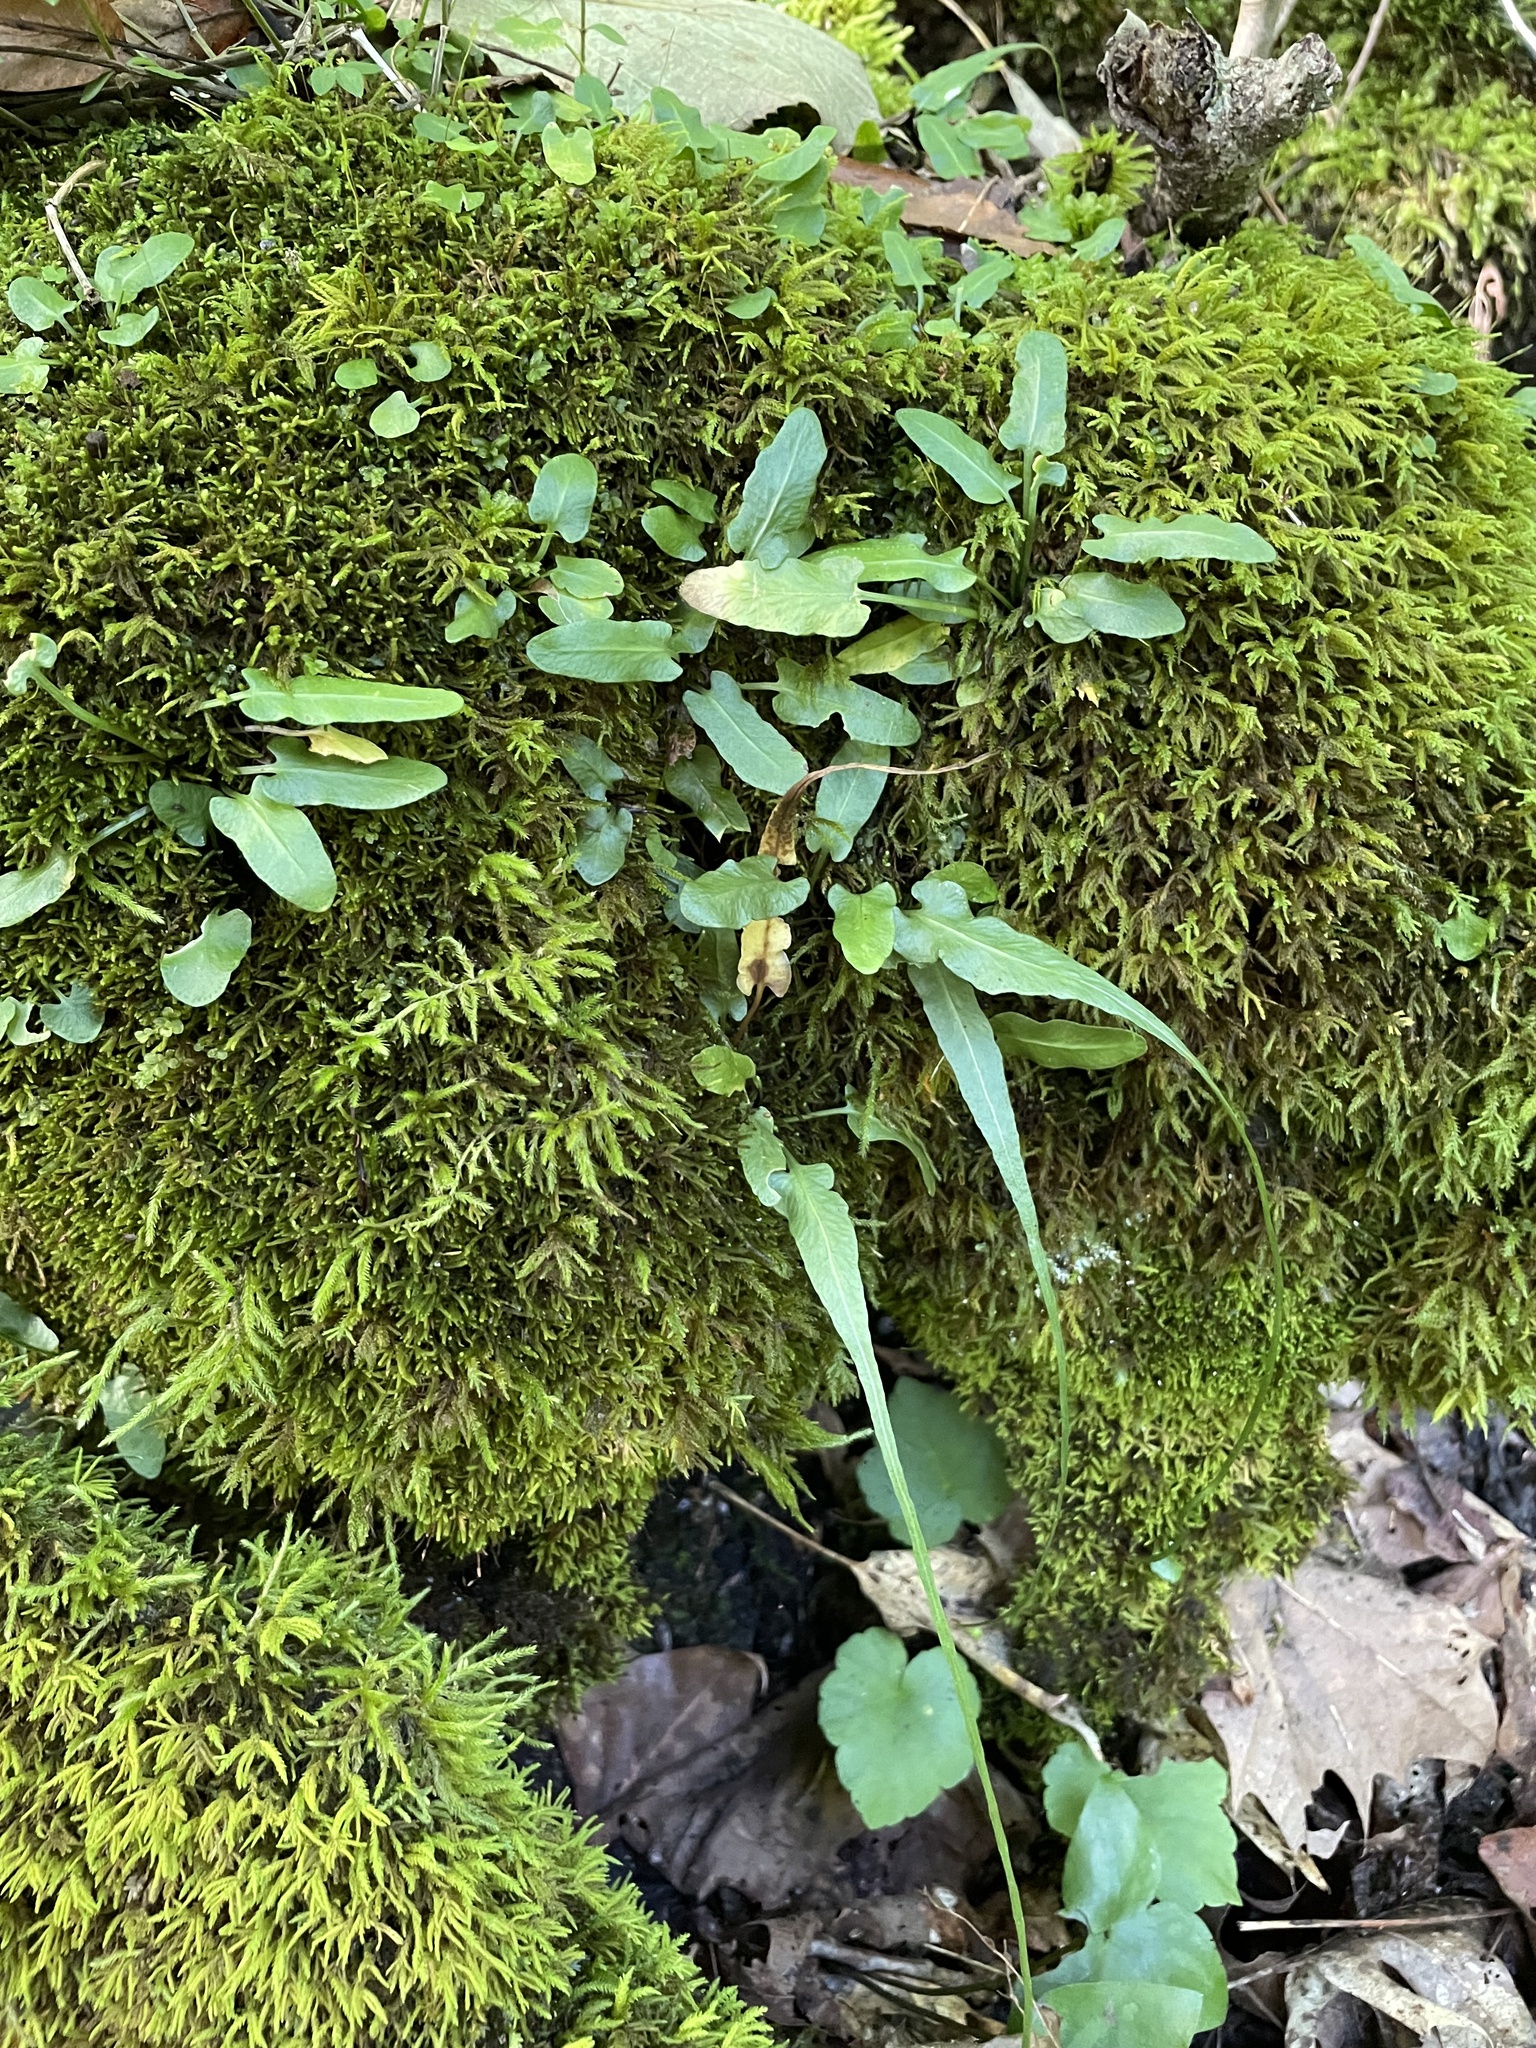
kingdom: Plantae
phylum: Tracheophyta
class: Polypodiopsida
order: Polypodiales
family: Aspleniaceae
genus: Asplenium
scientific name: Asplenium rhizophyllum
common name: Walking fern
